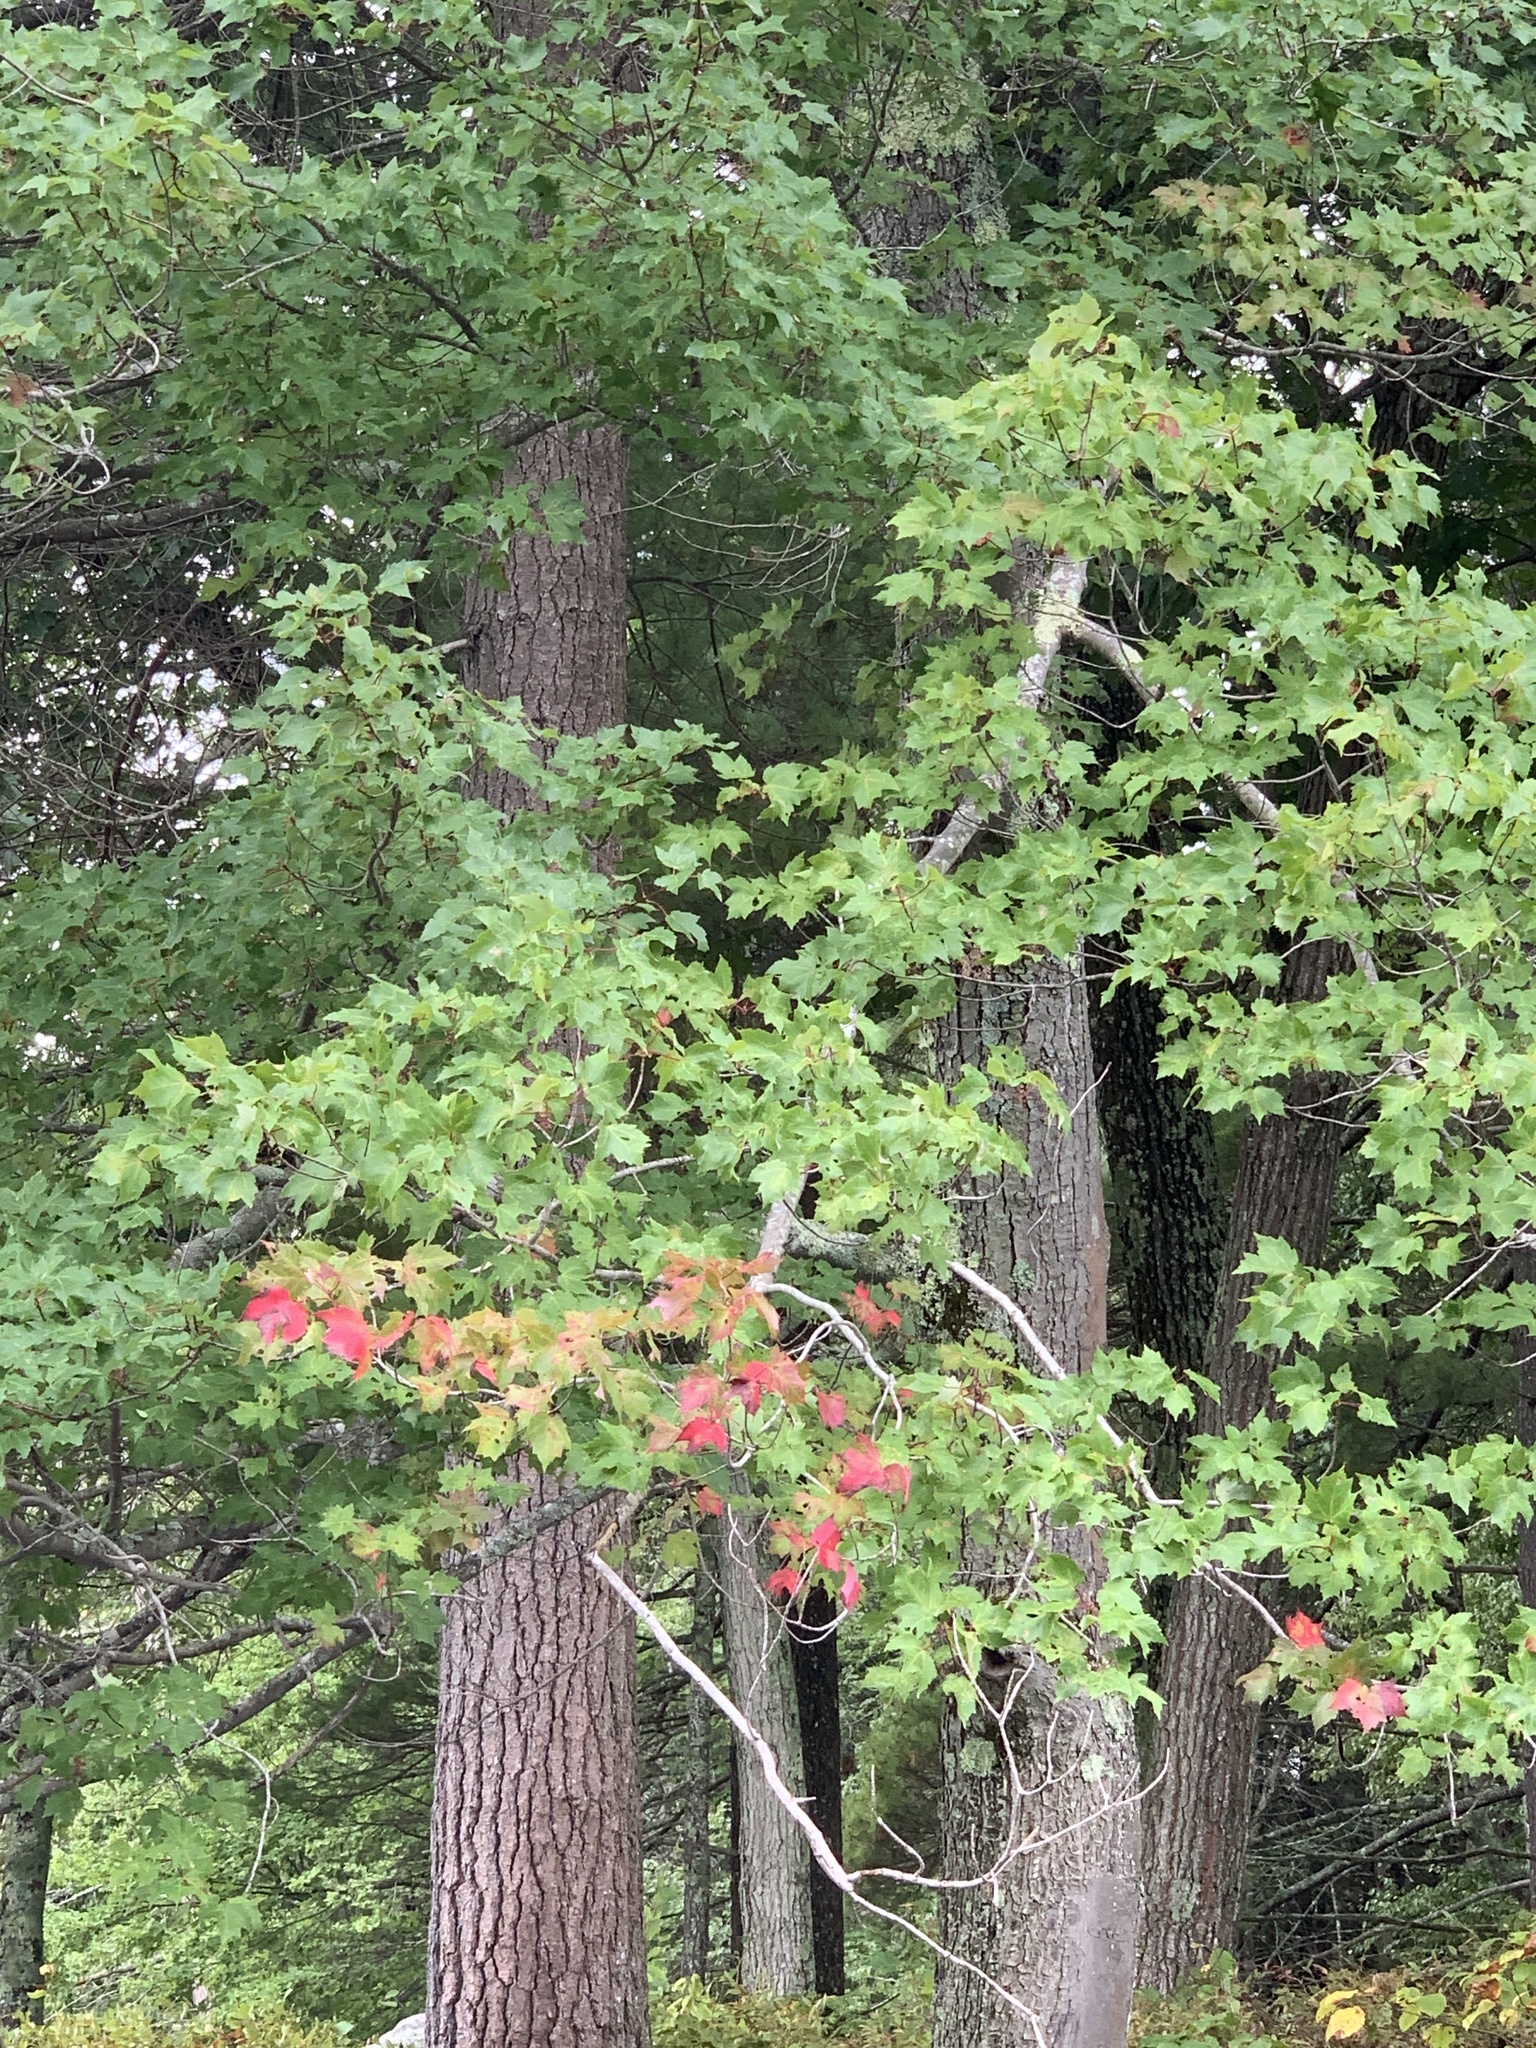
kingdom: Plantae
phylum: Tracheophyta
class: Magnoliopsida
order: Sapindales
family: Sapindaceae
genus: Acer
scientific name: Acer rubrum
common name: Red maple
